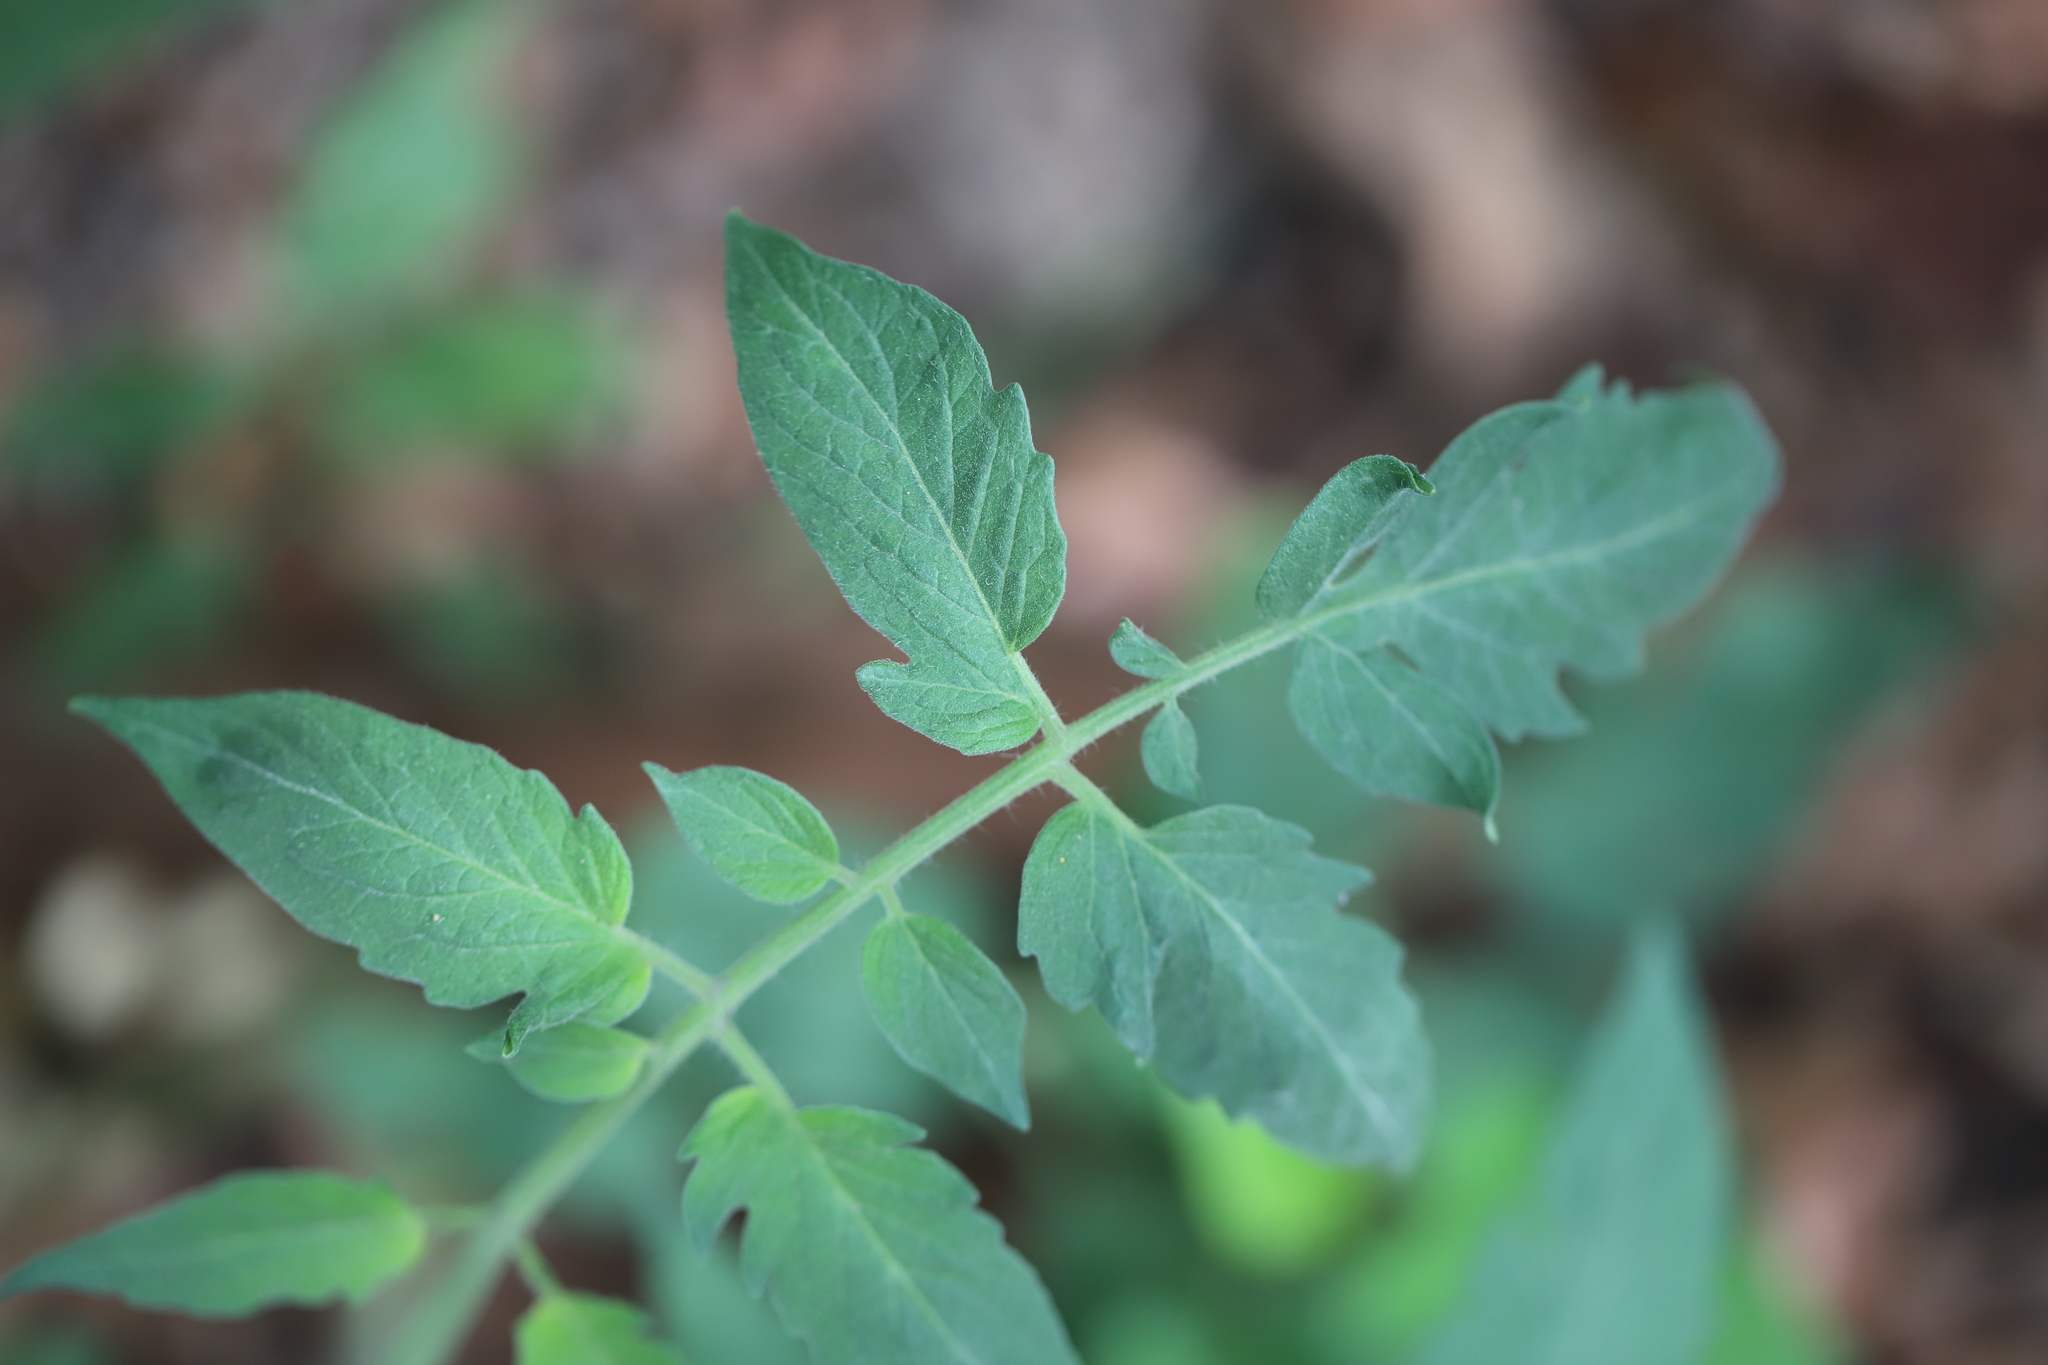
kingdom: Plantae
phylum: Tracheophyta
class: Magnoliopsida
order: Solanales
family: Solanaceae
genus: Solanum
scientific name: Solanum lycopersicum
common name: Garden tomato
